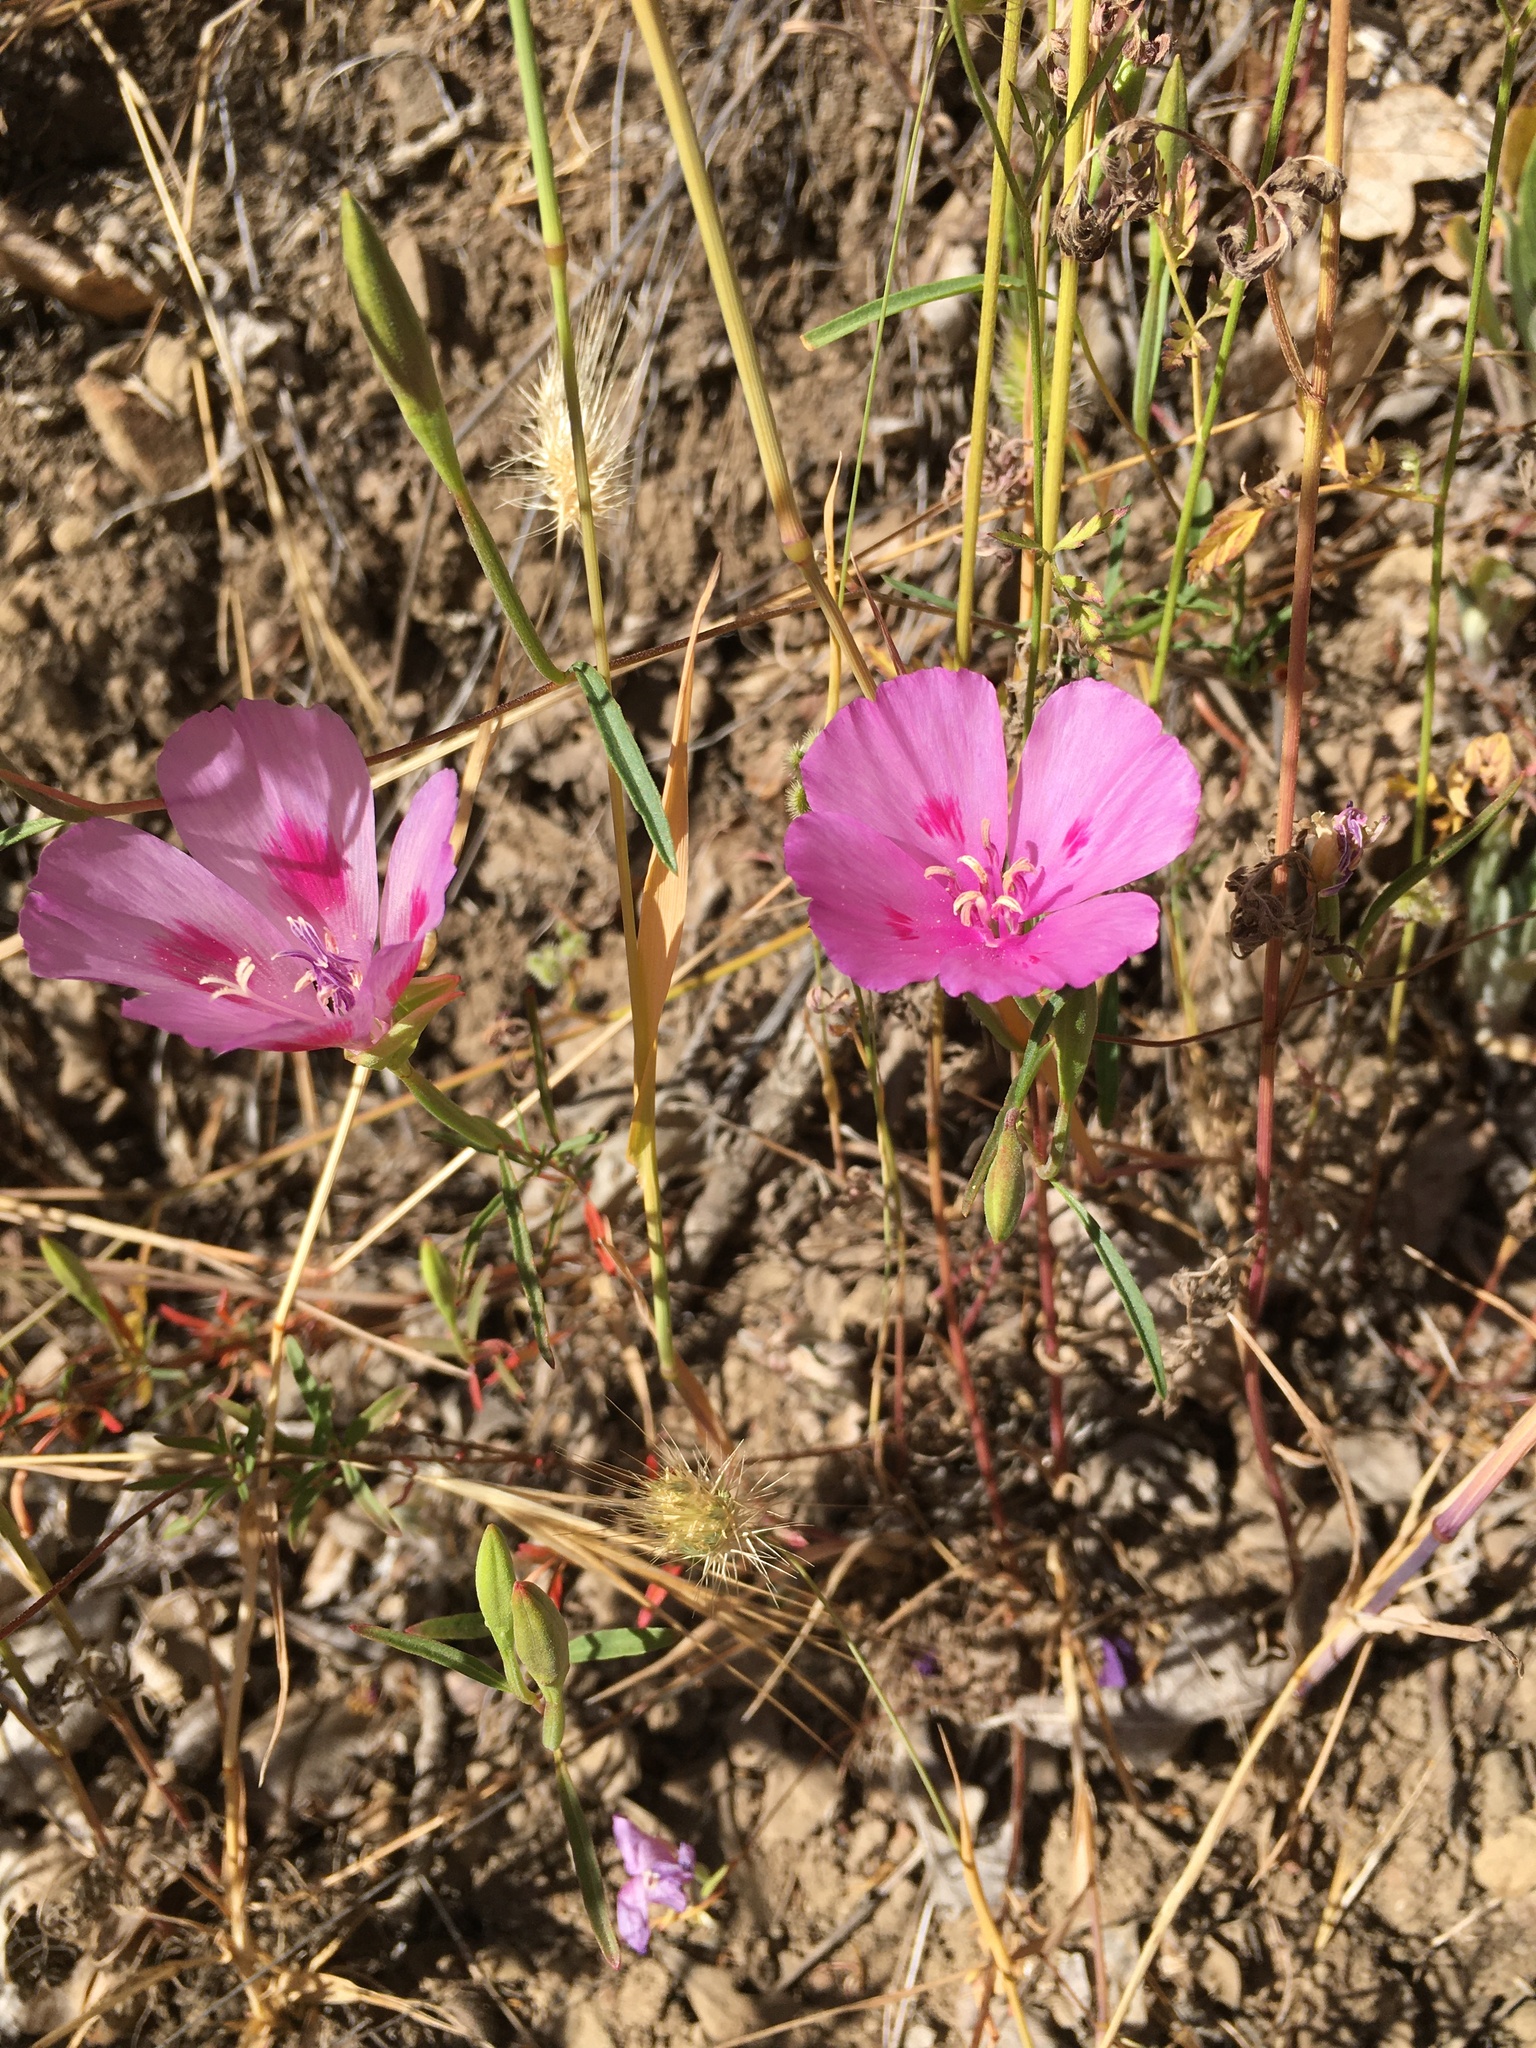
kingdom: Plantae
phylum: Tracheophyta
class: Magnoliopsida
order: Myrtales
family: Onagraceae
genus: Clarkia
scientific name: Clarkia amoena
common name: Godetia
